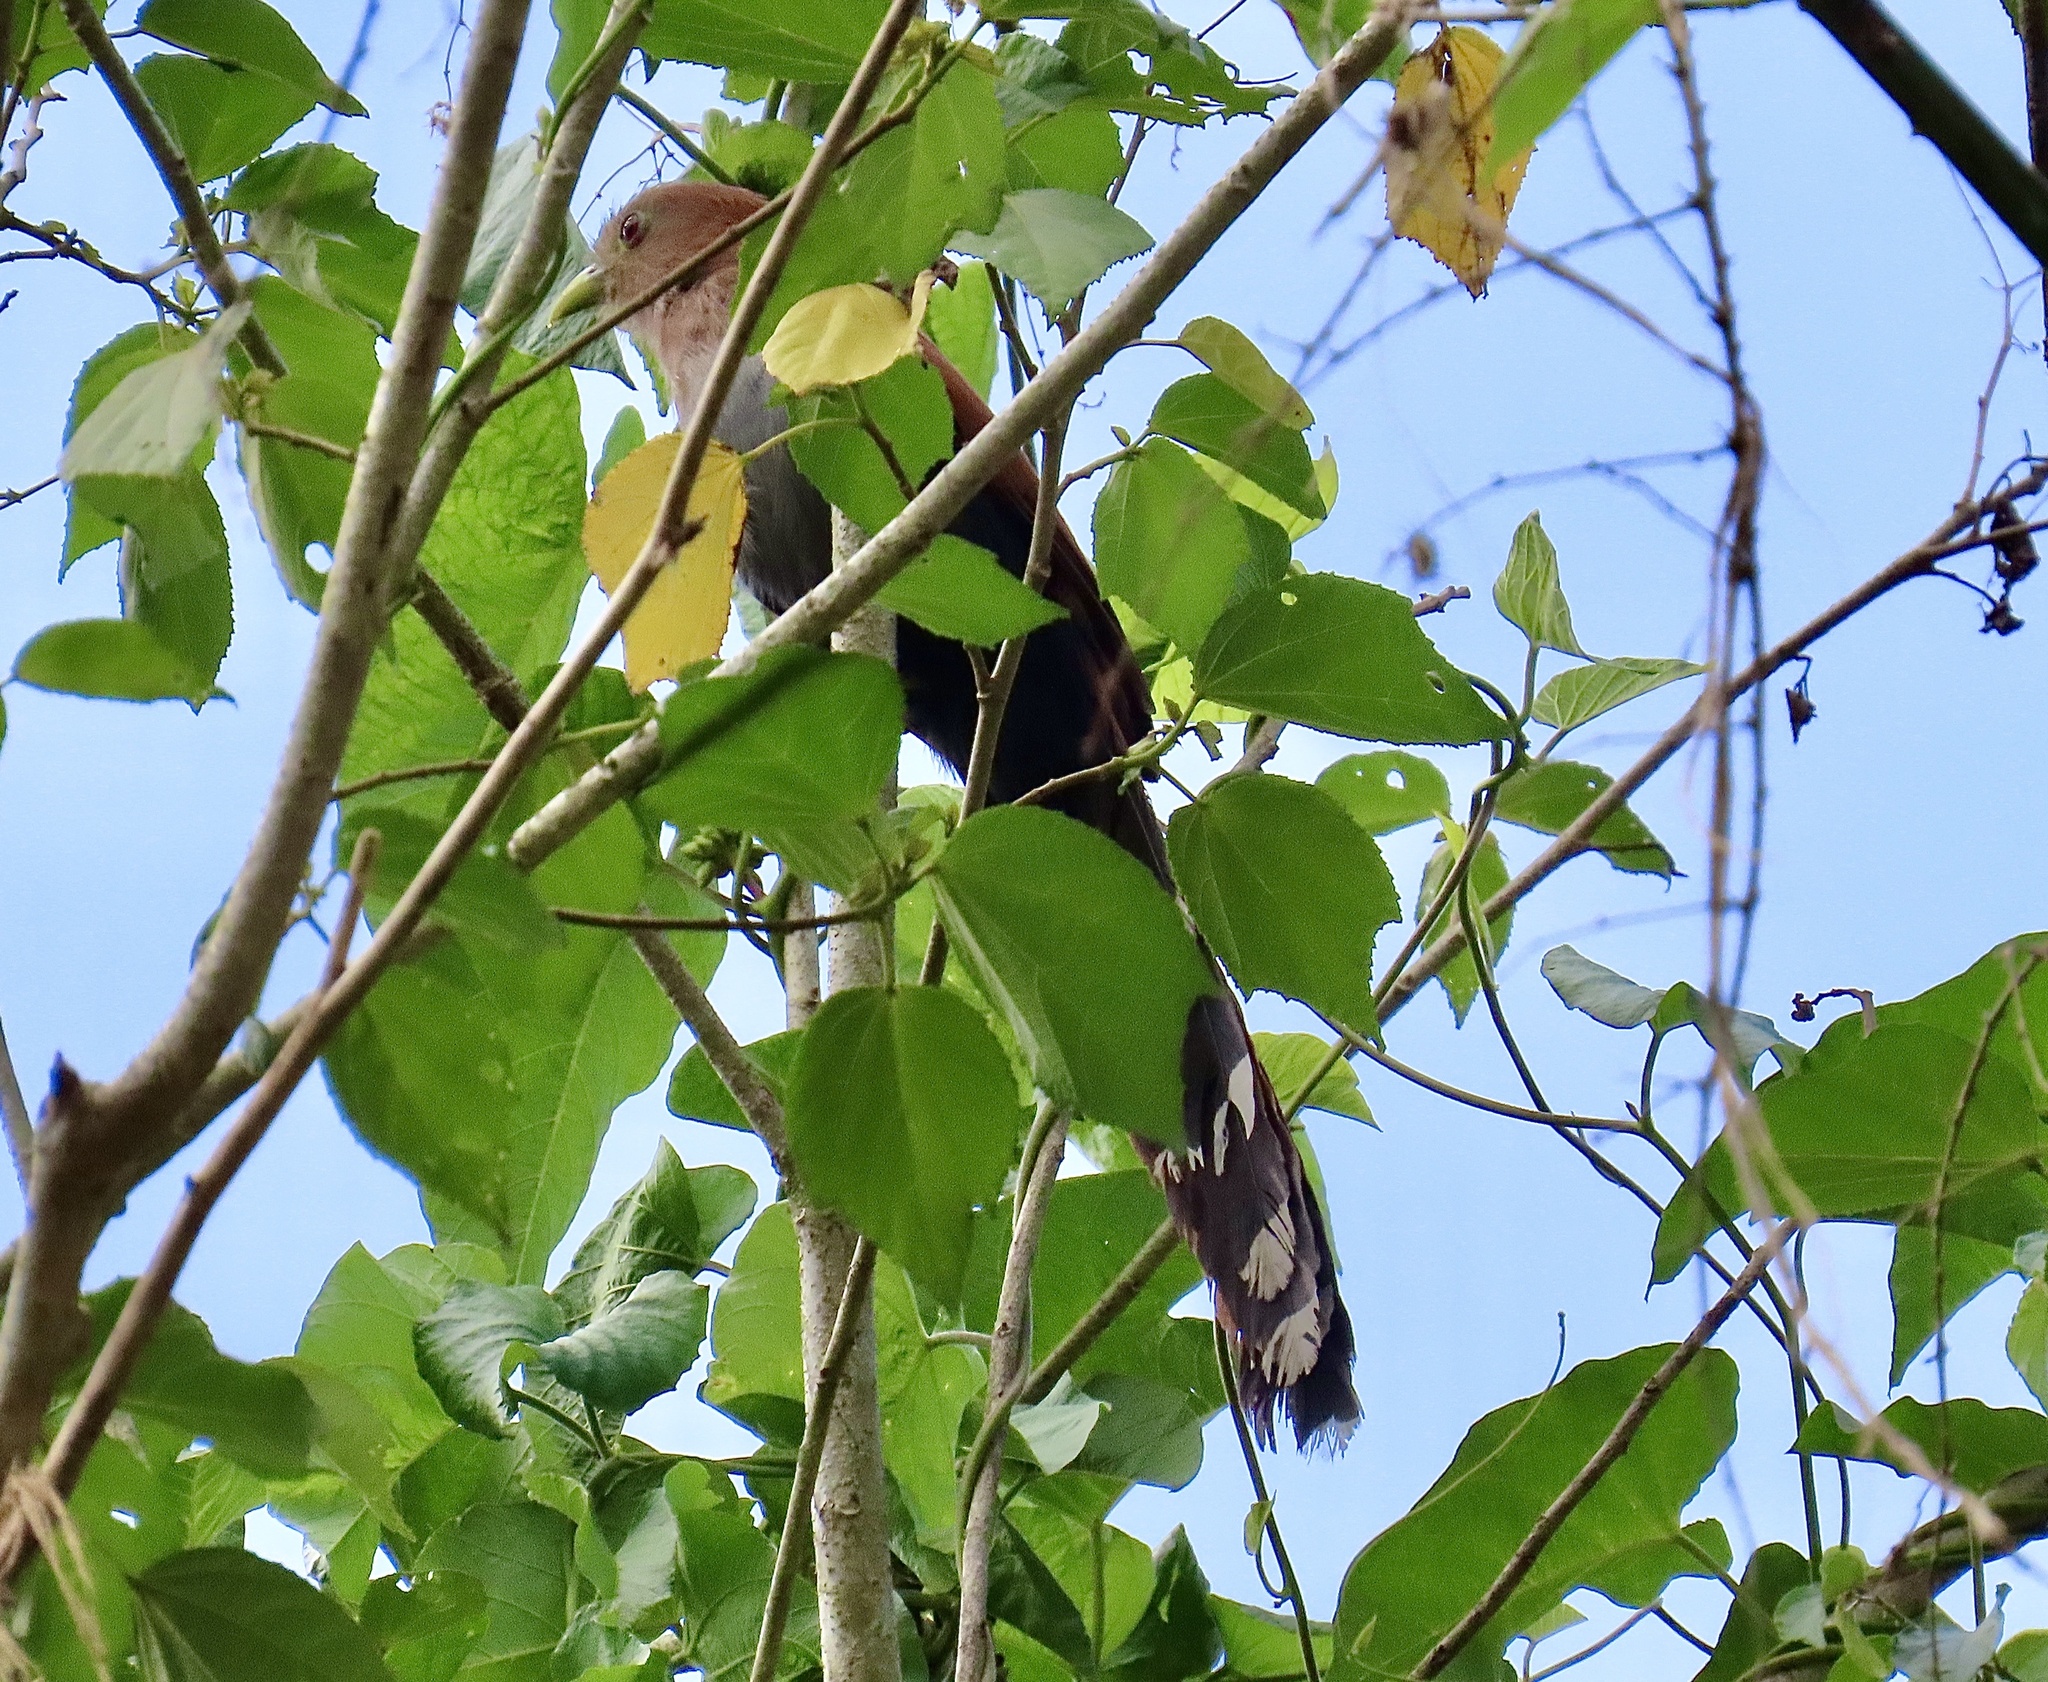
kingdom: Animalia
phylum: Chordata
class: Aves
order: Cuculiformes
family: Cuculidae
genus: Piaya
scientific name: Piaya cayana
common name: Squirrel cuckoo
